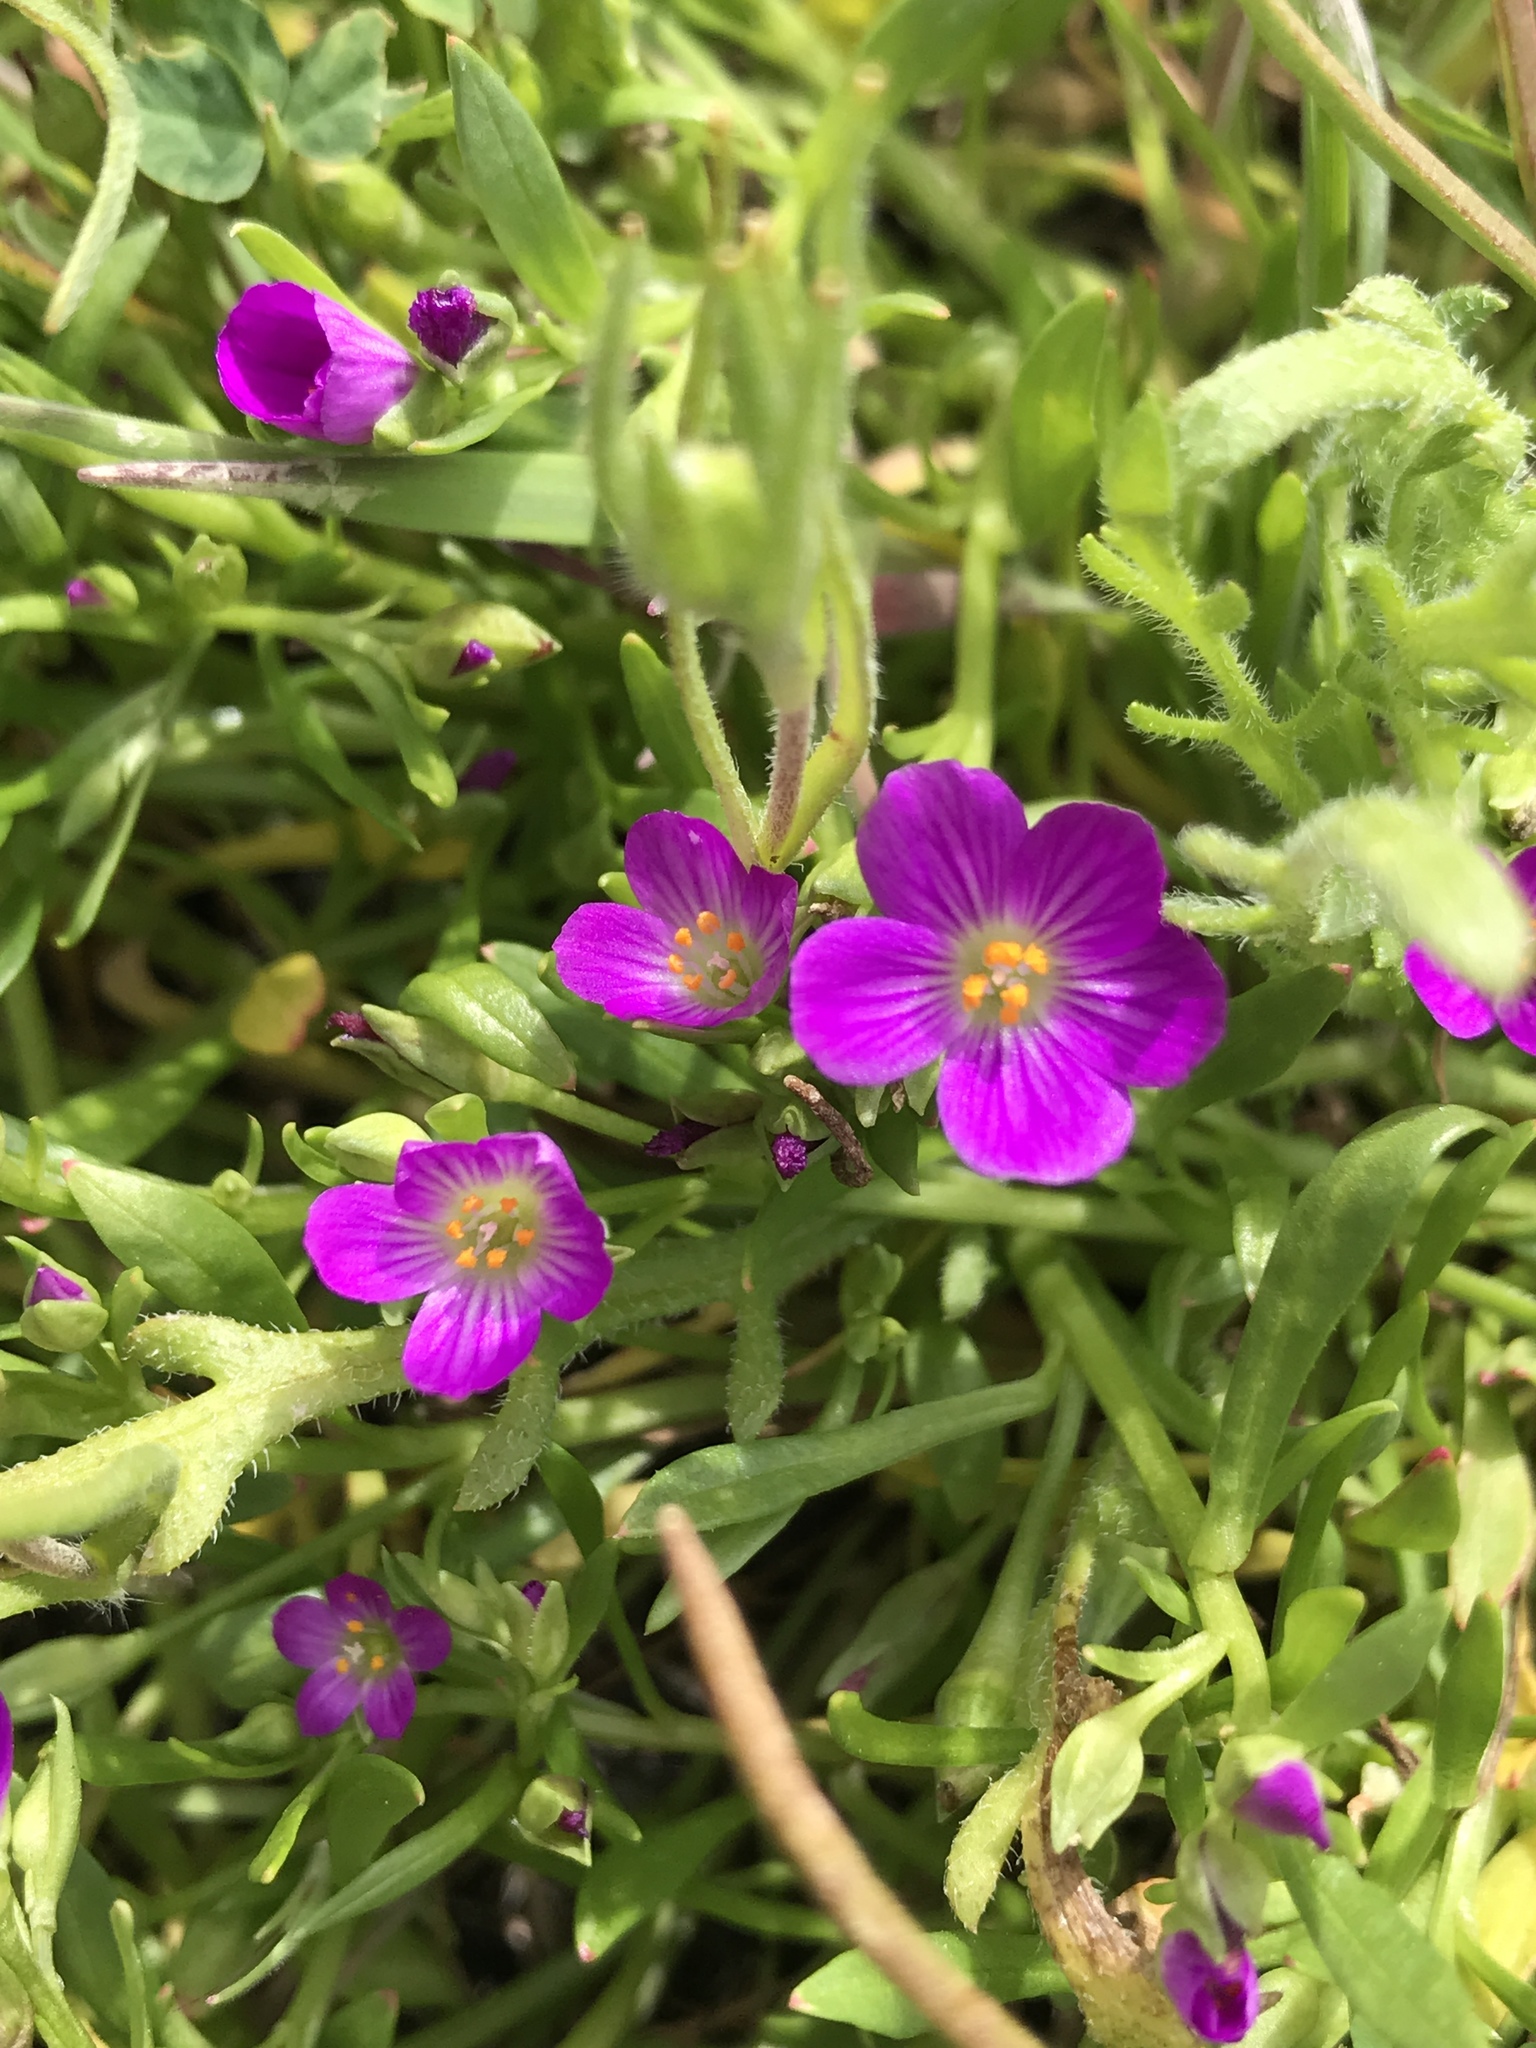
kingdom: Plantae
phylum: Tracheophyta
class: Magnoliopsida
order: Caryophyllales
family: Montiaceae
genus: Calandrinia
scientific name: Calandrinia menziesii
